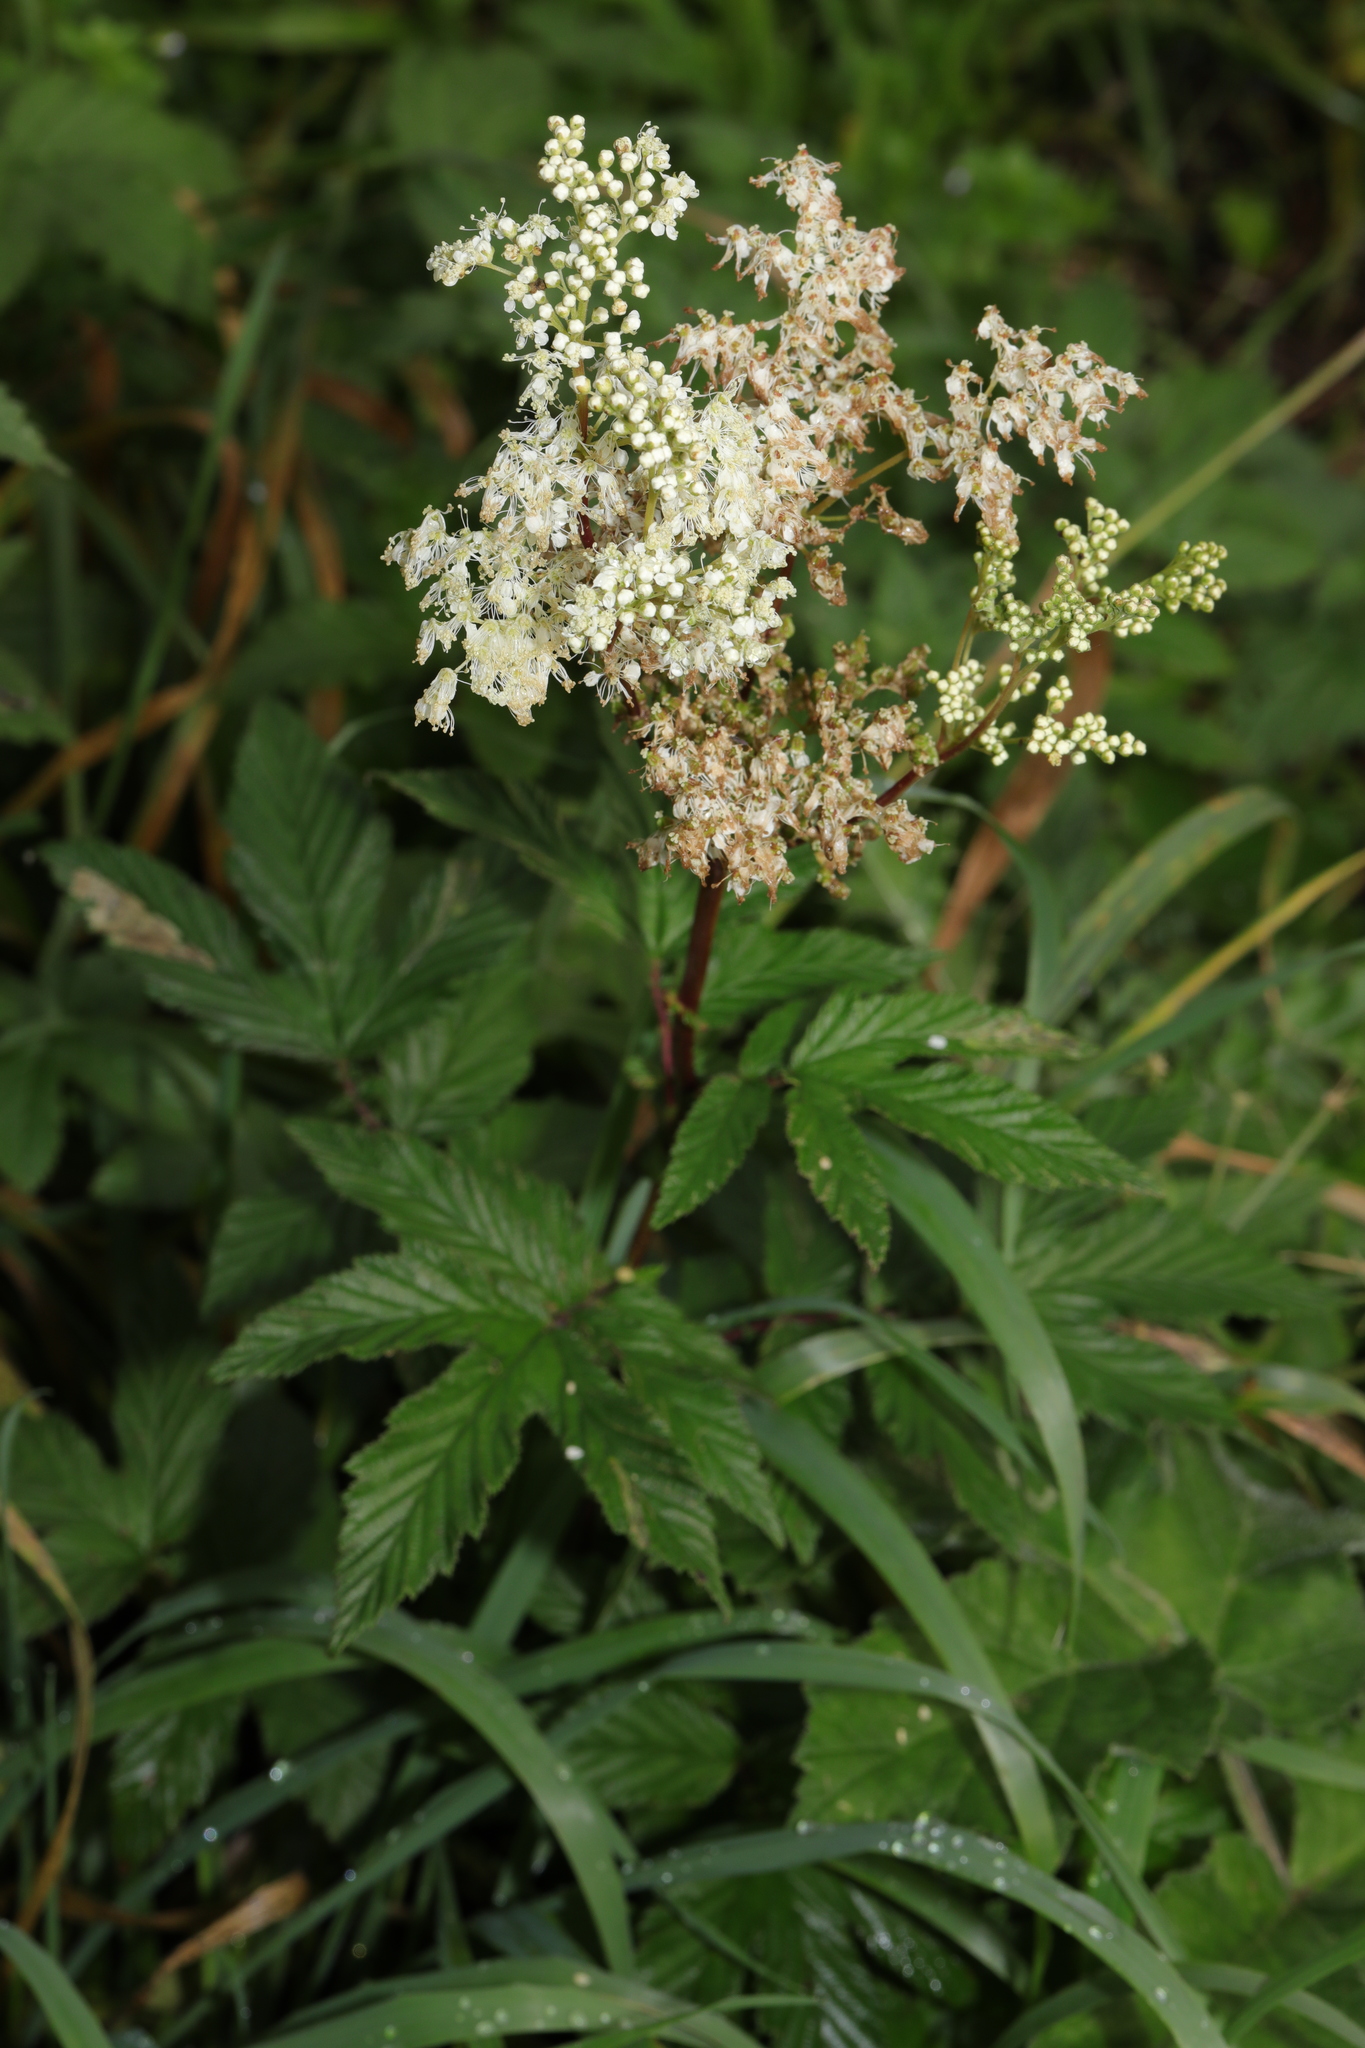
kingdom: Plantae
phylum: Tracheophyta
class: Magnoliopsida
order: Rosales
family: Rosaceae
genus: Filipendula
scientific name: Filipendula ulmaria
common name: Meadowsweet
